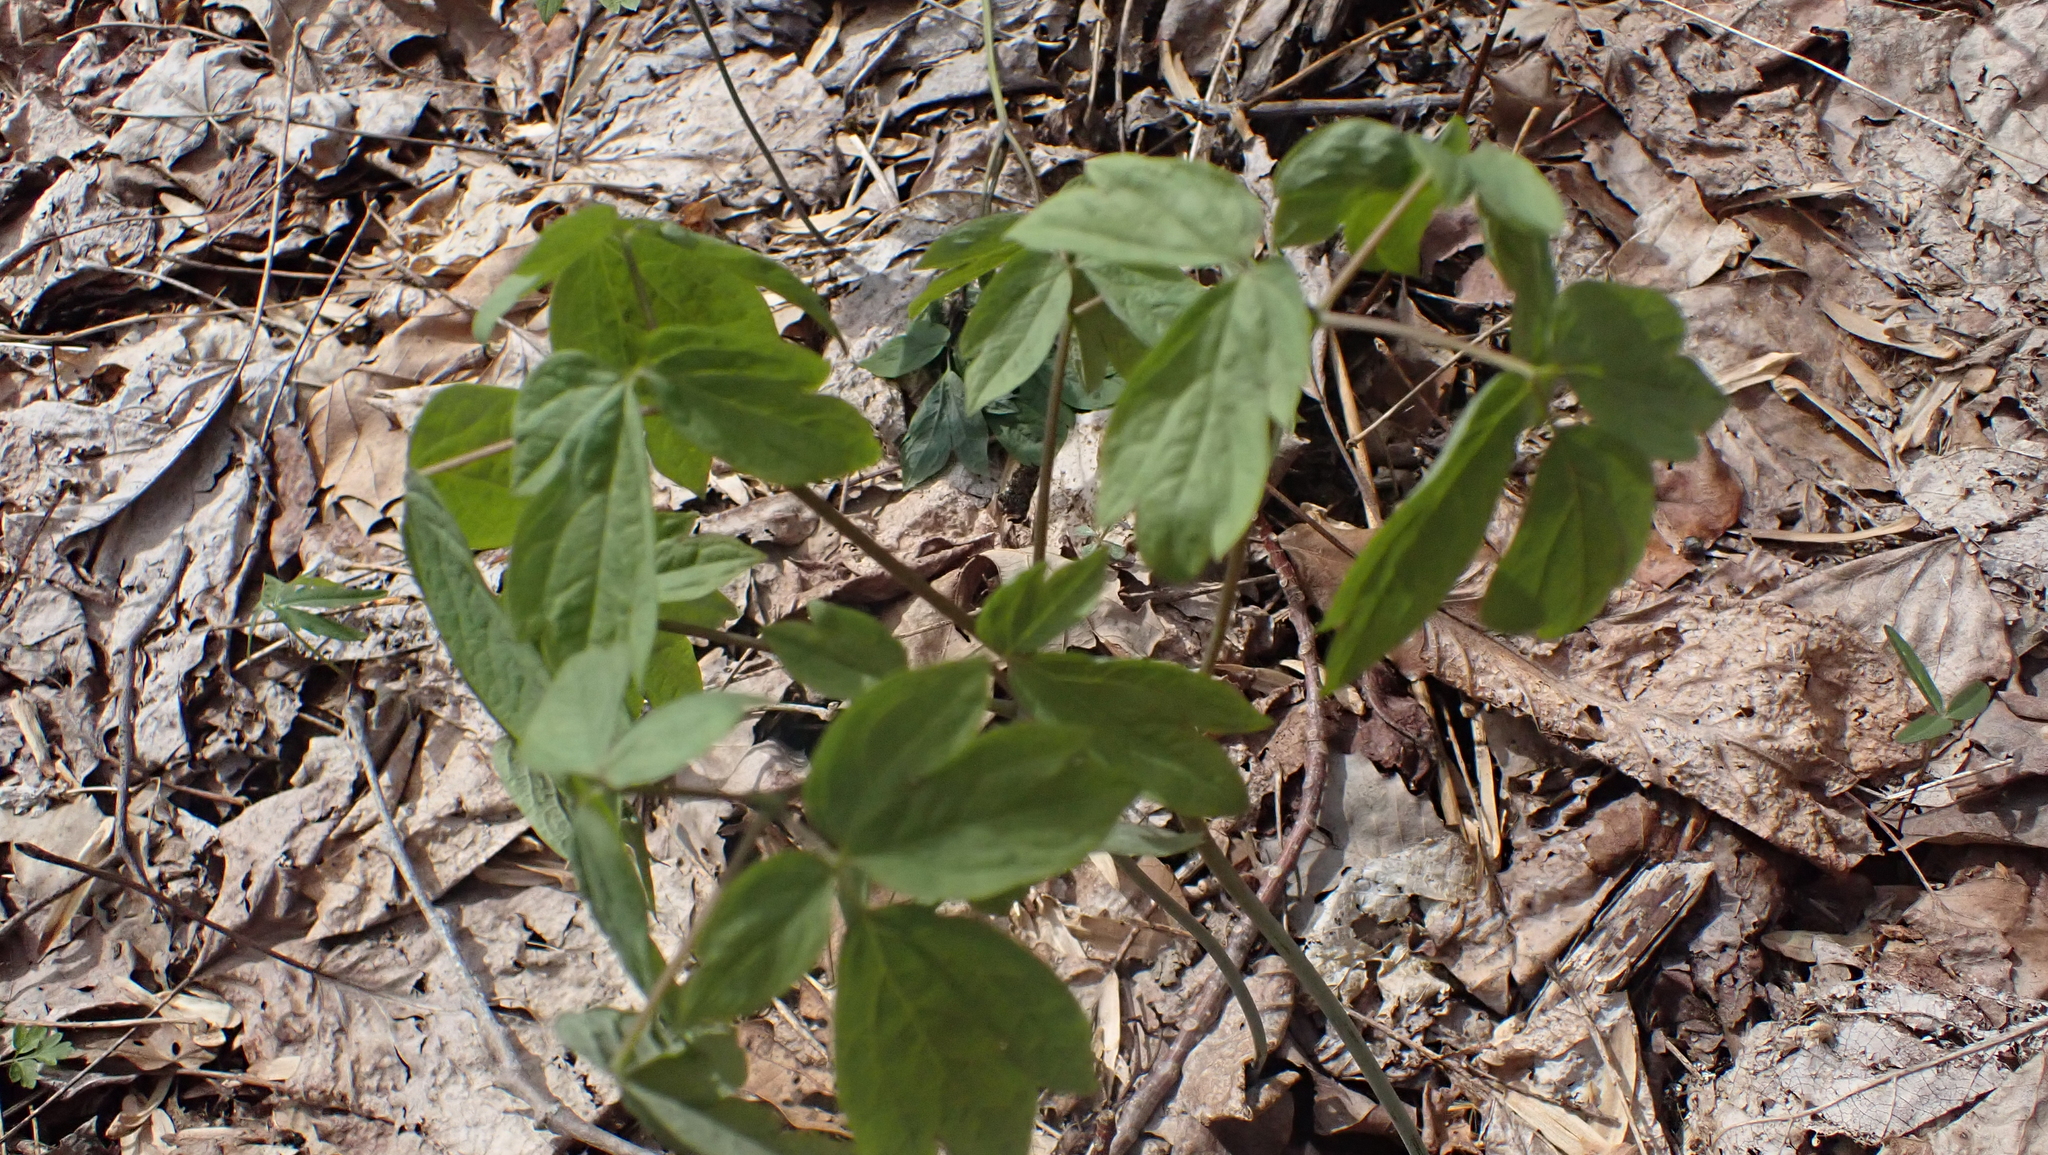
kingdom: Plantae
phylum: Tracheophyta
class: Magnoliopsida
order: Ranunculales
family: Berberidaceae
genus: Caulophyllum
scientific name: Caulophyllum thalictroides
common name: Blue cohosh
